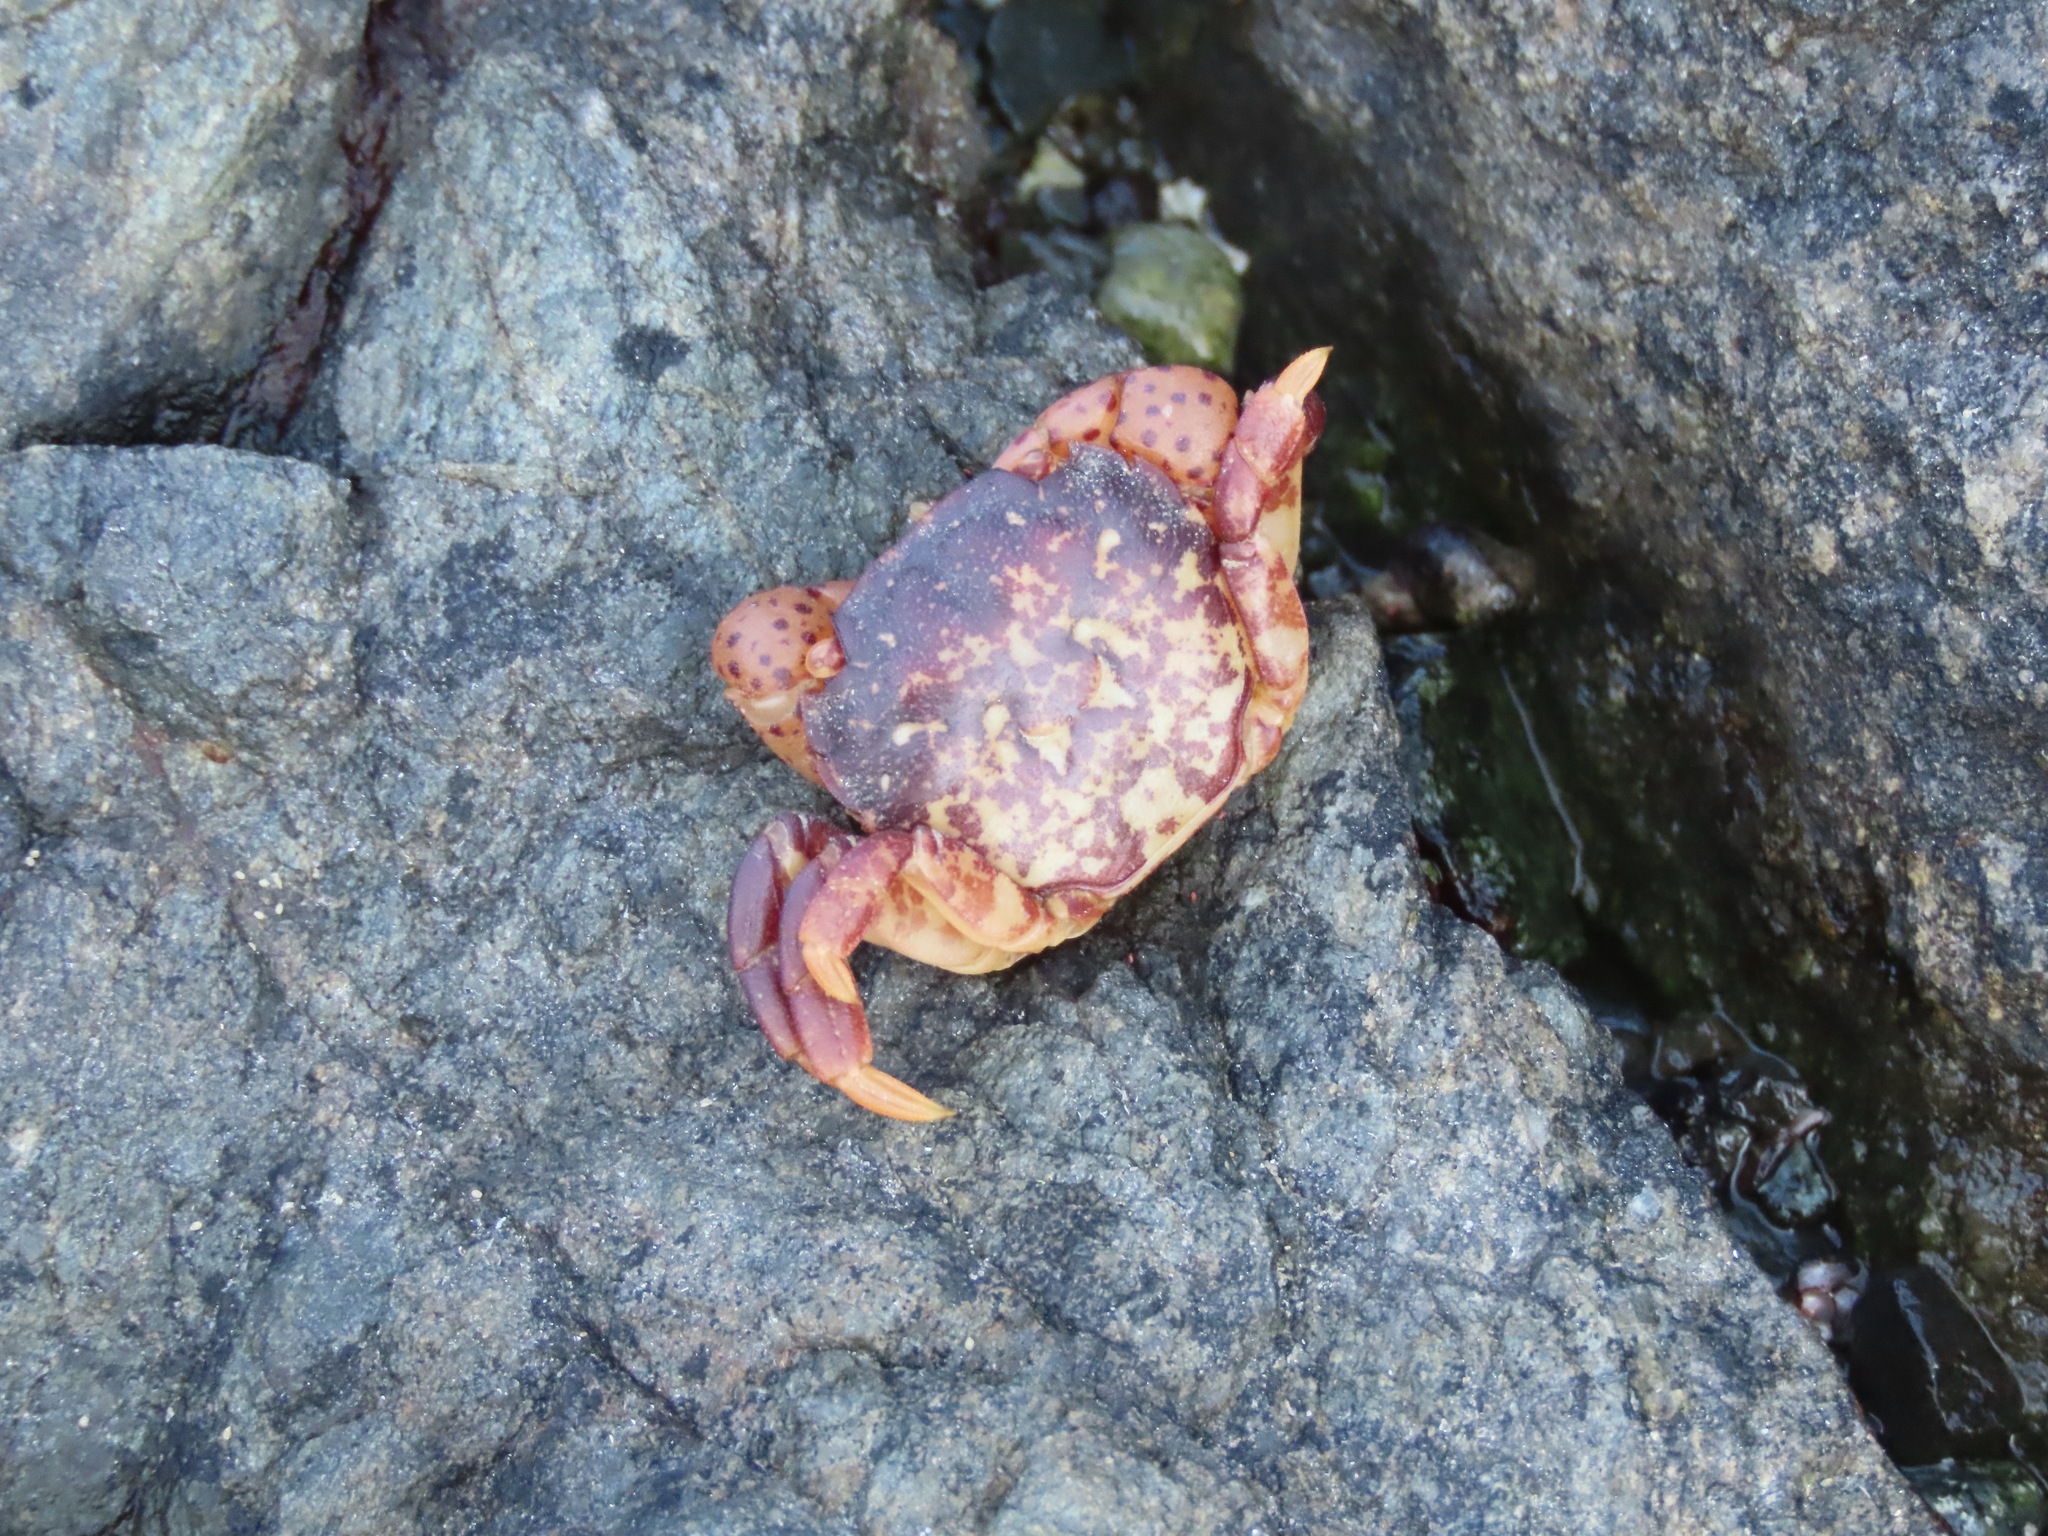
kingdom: Animalia
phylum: Arthropoda
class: Malacostraca
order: Decapoda
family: Varunidae
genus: Hemigrapsus
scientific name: Hemigrapsus nudus
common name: Purple shore crab
